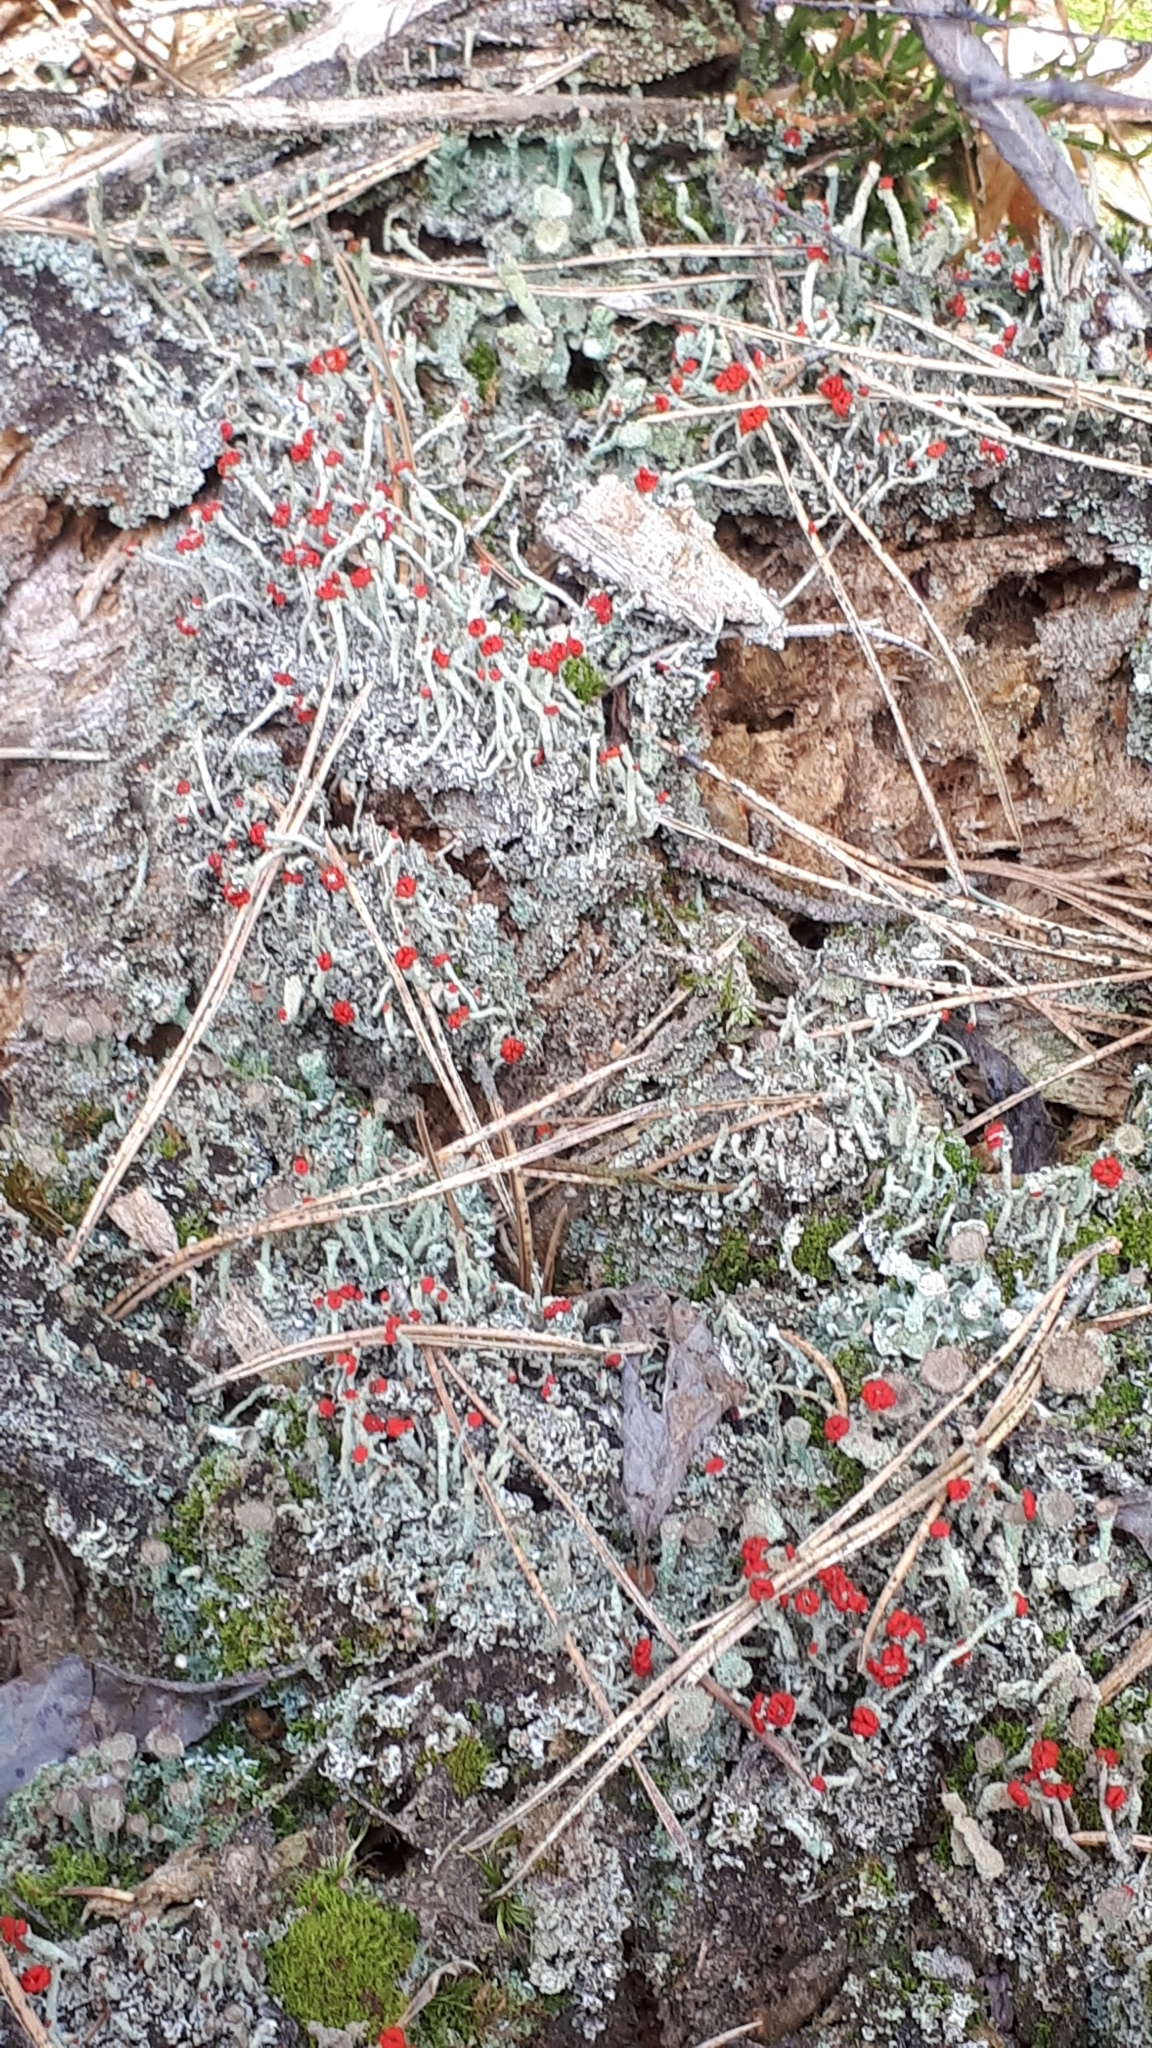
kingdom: Fungi
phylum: Ascomycota
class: Lecanoromycetes
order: Lecanorales
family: Cladoniaceae
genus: Cladonia
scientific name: Cladonia floerkeana
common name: Gritty british soldiers lichen
